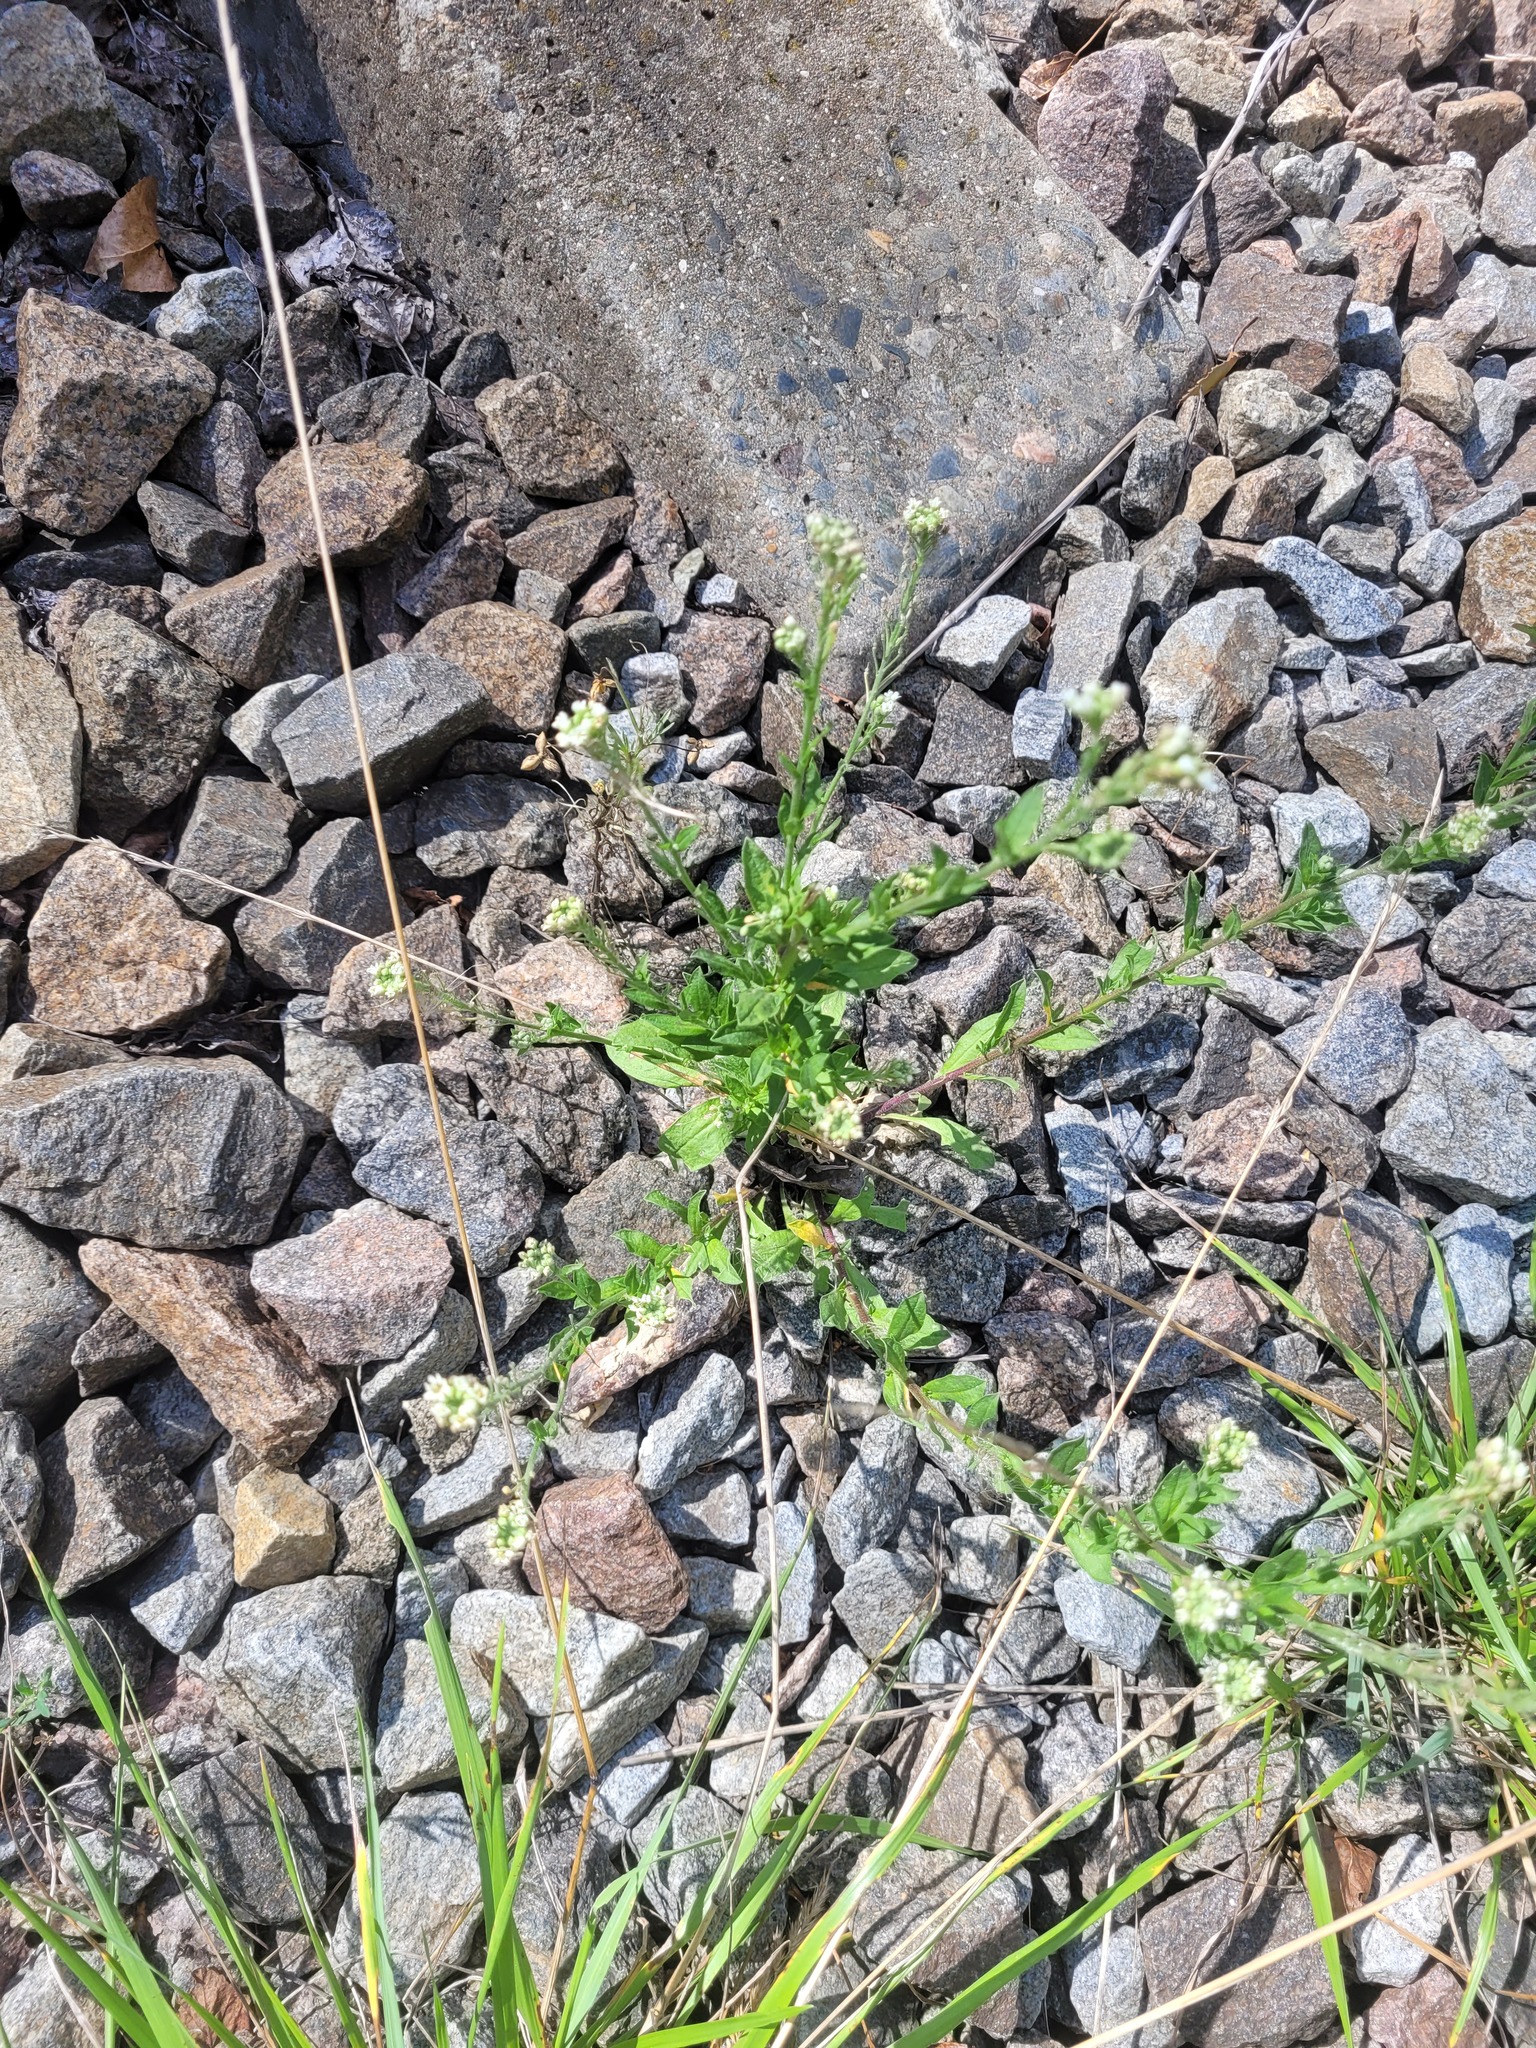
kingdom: Plantae
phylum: Tracheophyta
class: Magnoliopsida
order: Brassicales
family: Brassicaceae
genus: Berteroa
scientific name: Berteroa incana
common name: Hoary alison
